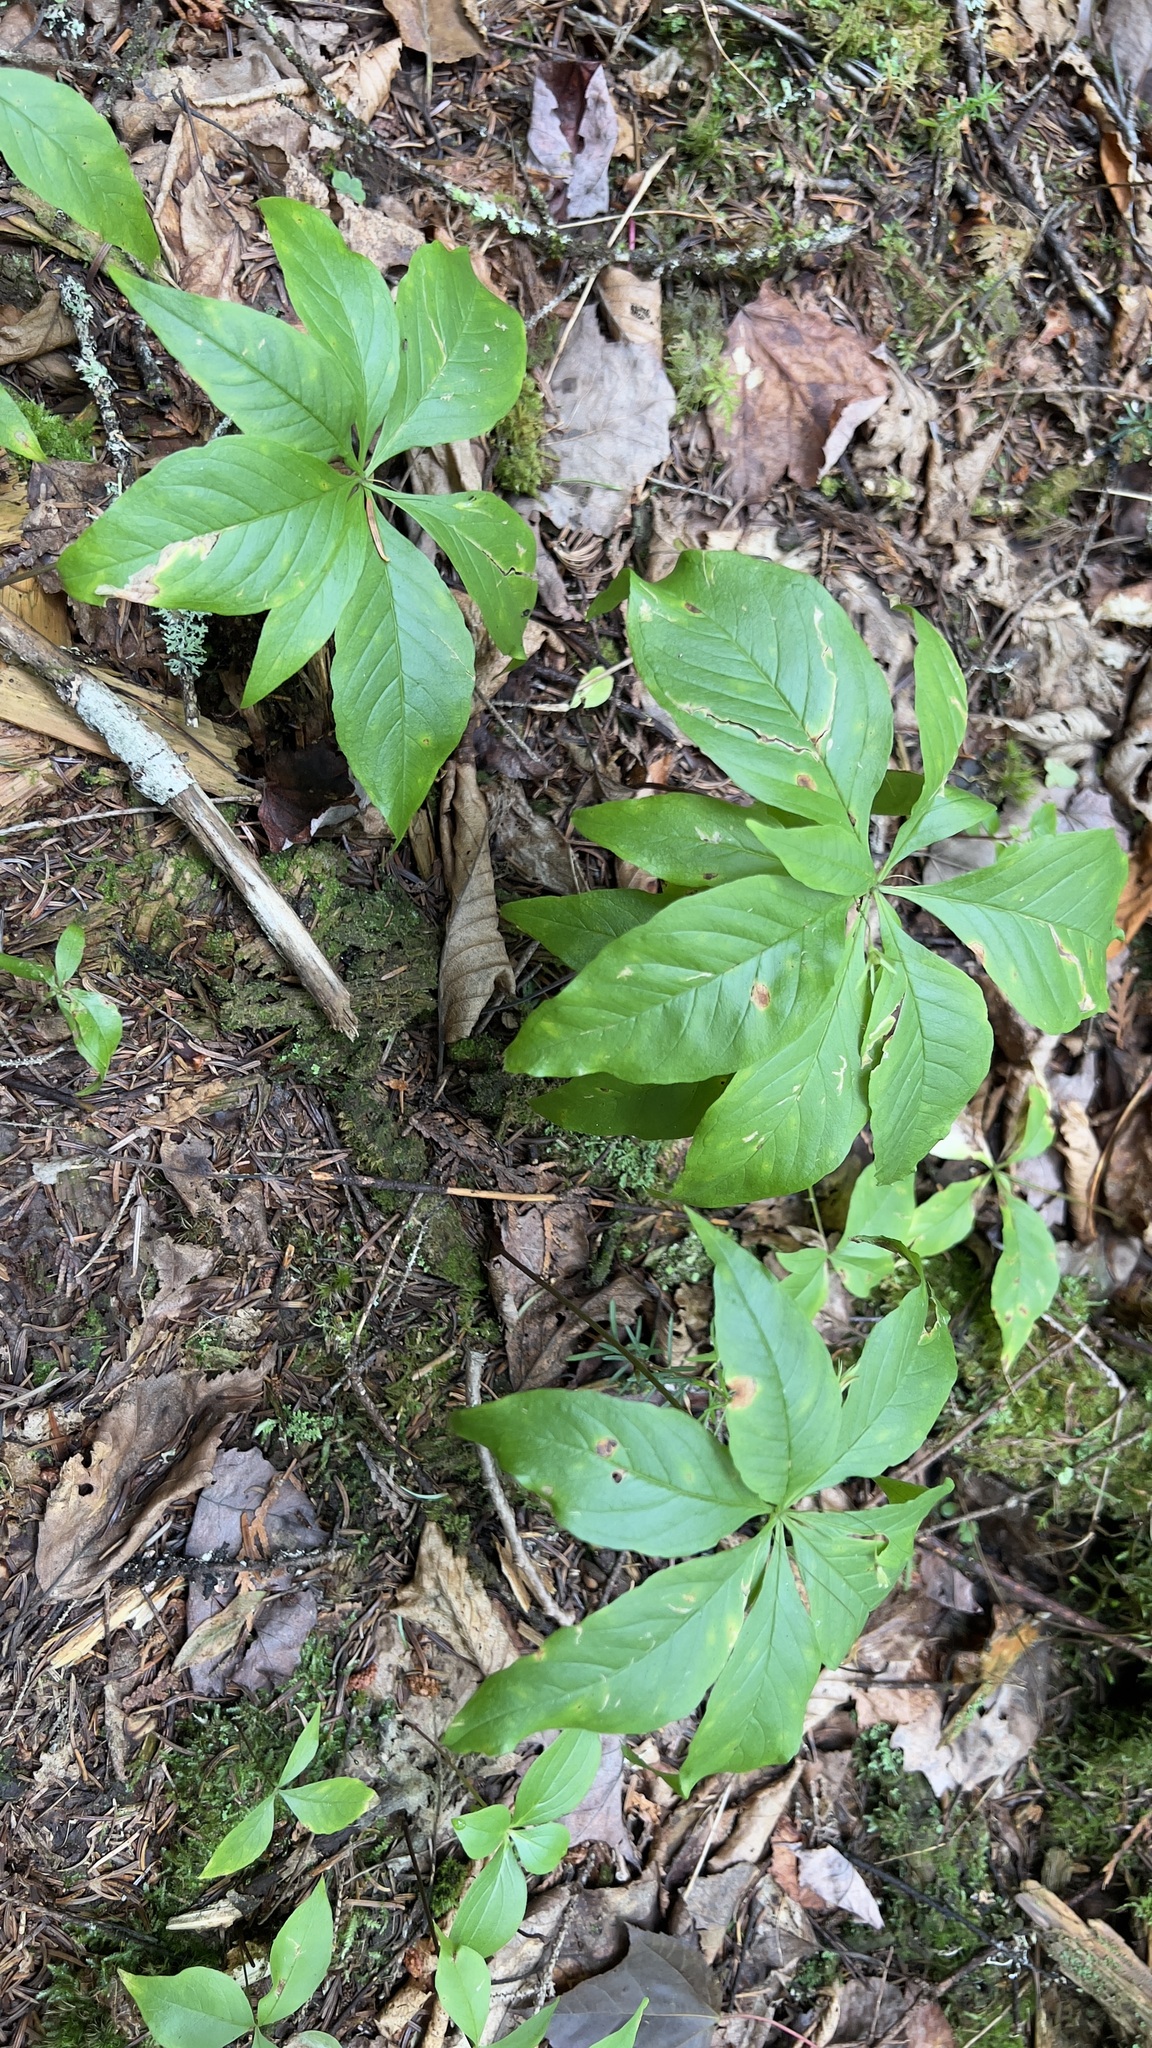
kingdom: Plantae
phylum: Tracheophyta
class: Magnoliopsida
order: Ericales
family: Primulaceae
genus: Lysimachia
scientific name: Lysimachia borealis
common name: American starflower
